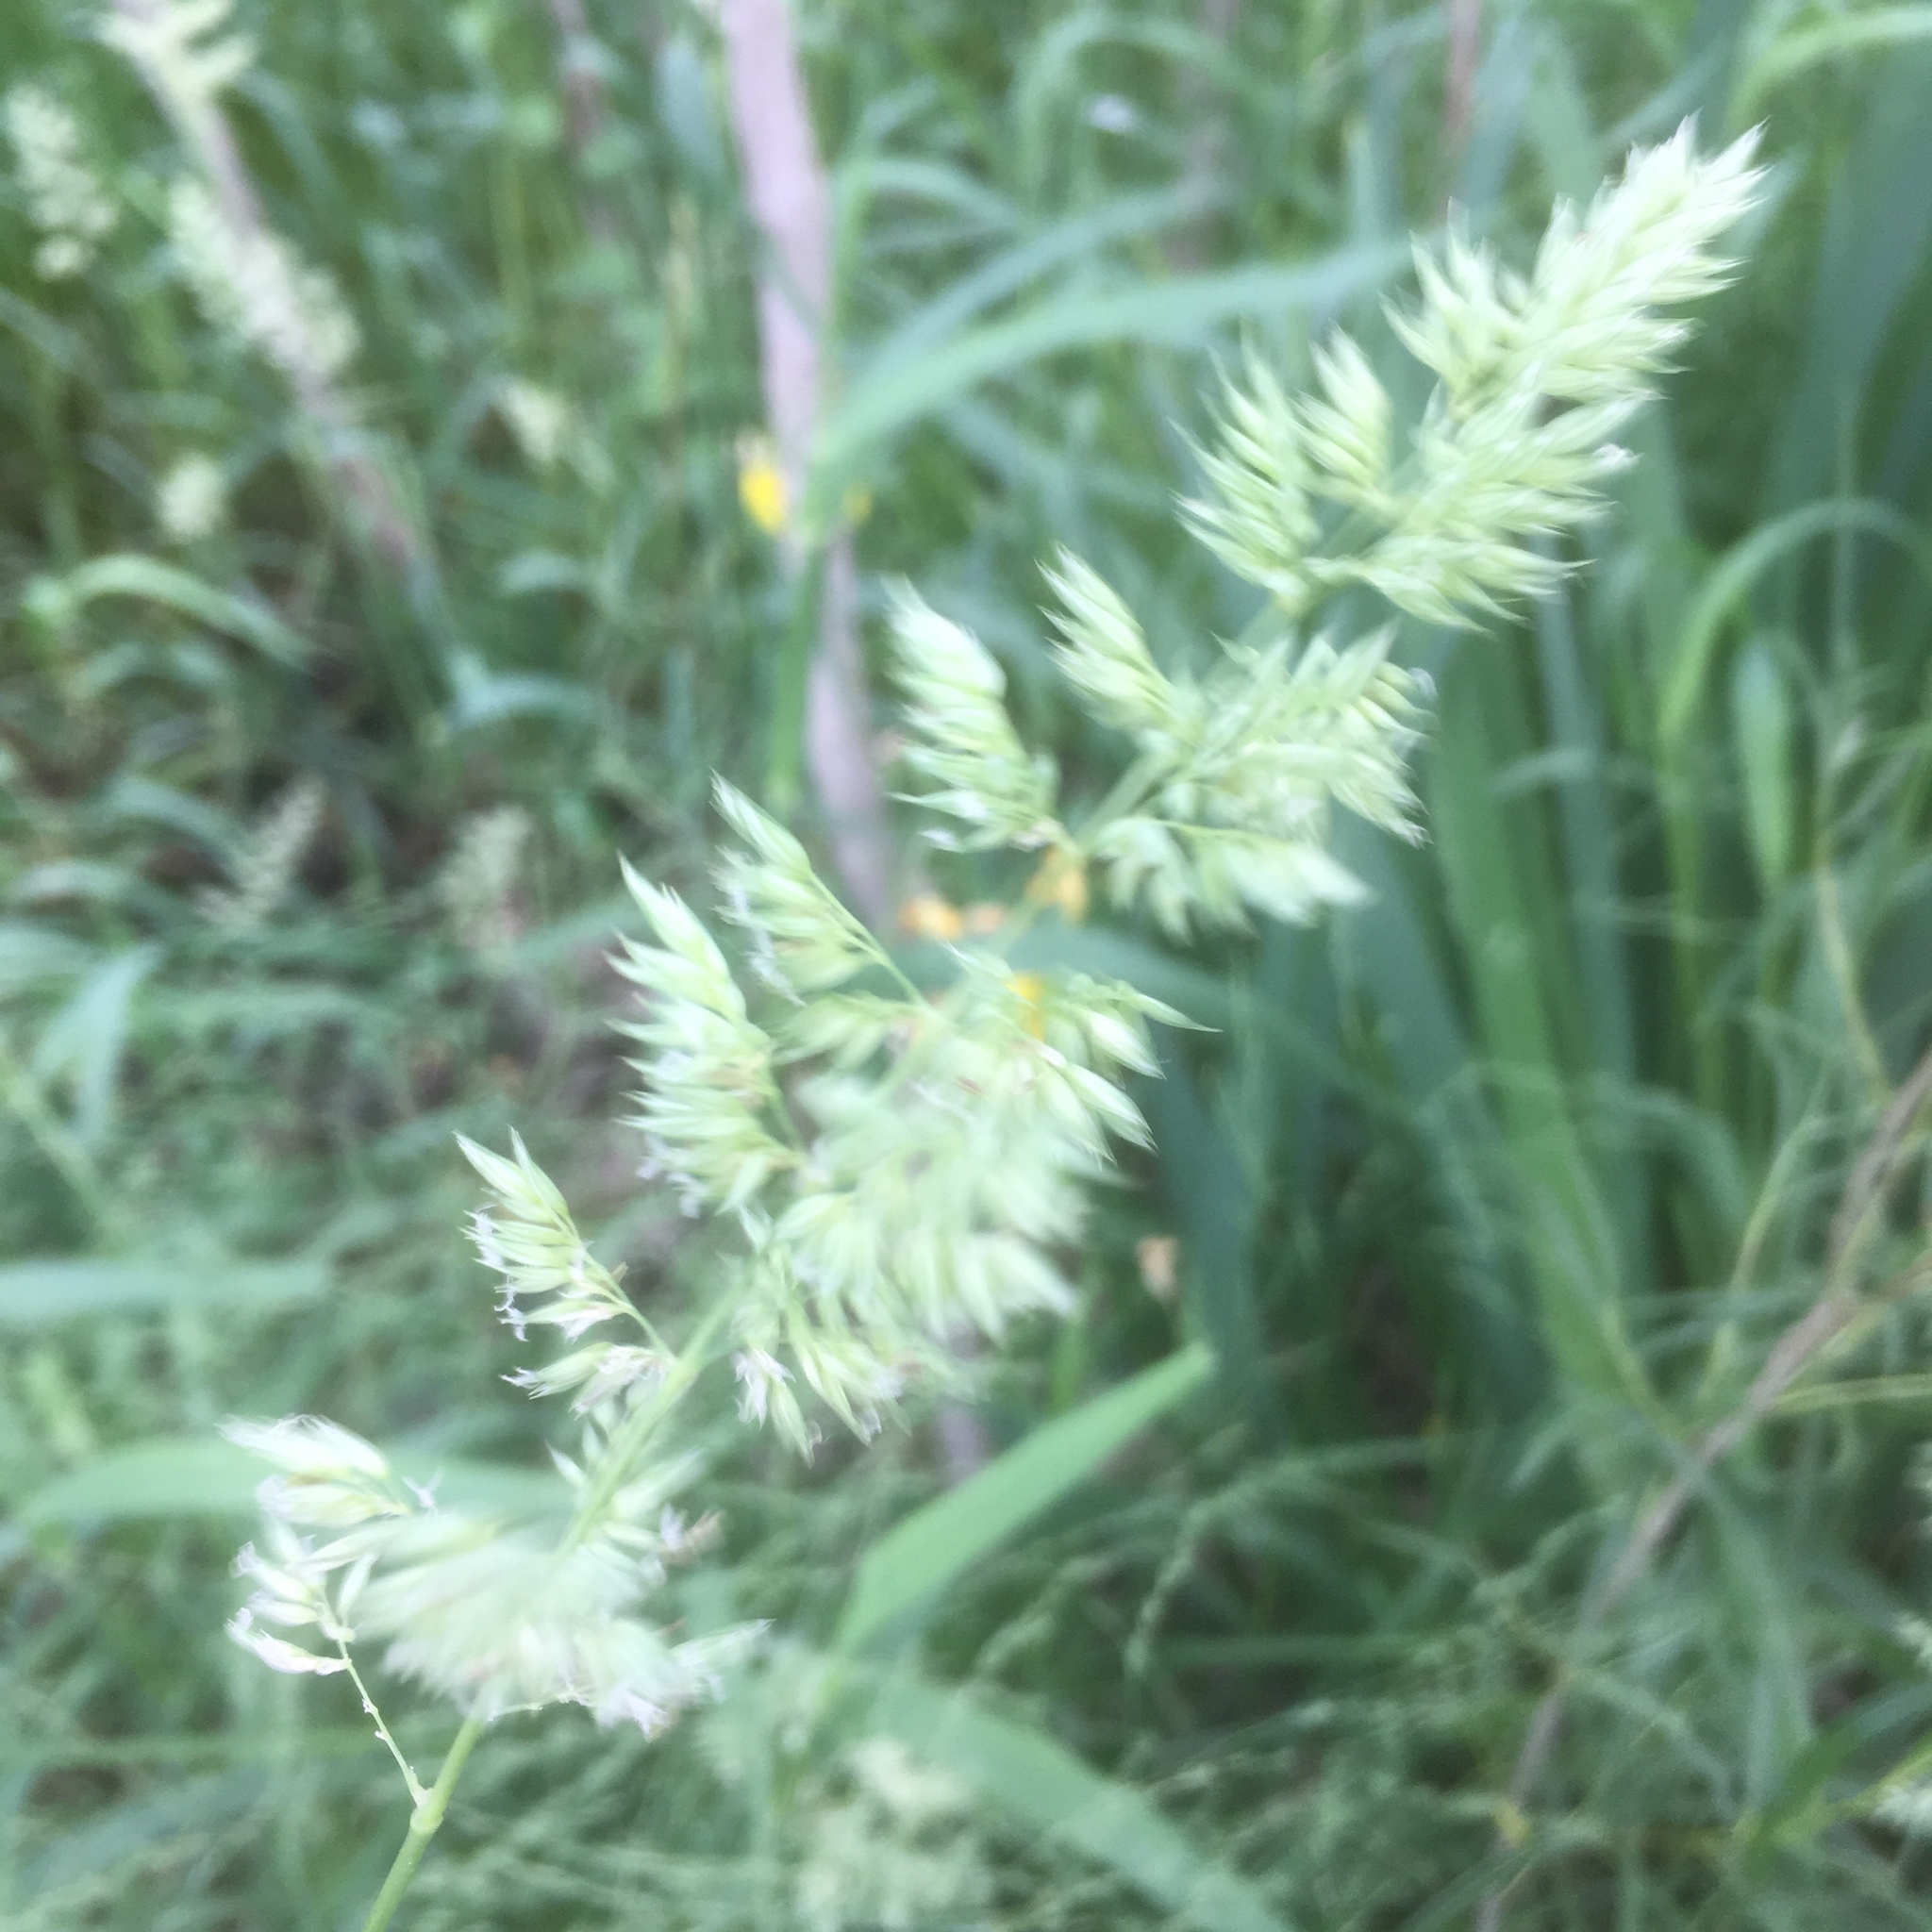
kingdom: Plantae
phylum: Tracheophyta
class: Liliopsida
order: Poales
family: Poaceae
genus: Dactylis
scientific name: Dactylis glomerata
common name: Orchardgrass
